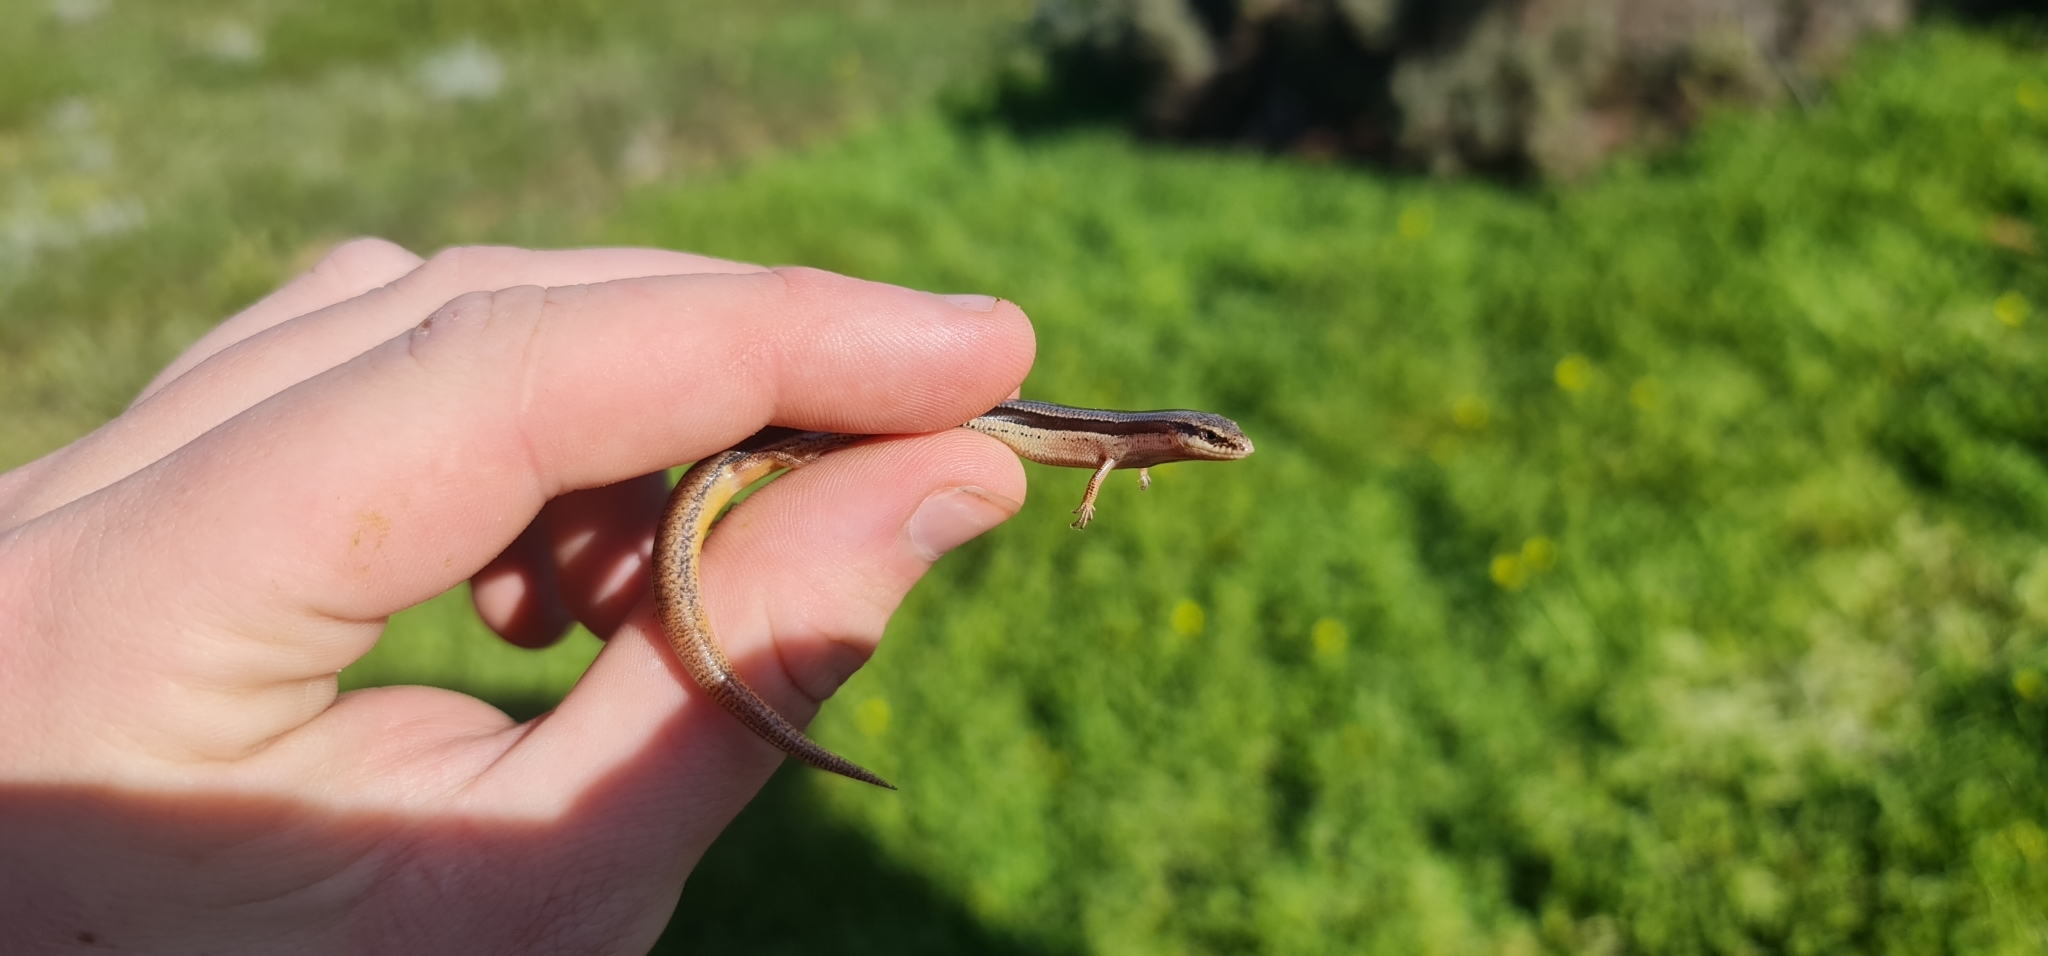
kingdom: Animalia
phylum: Chordata
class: Squamata
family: Scincidae
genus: Lerista
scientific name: Lerista bougainvillii
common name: South-eastern slider
